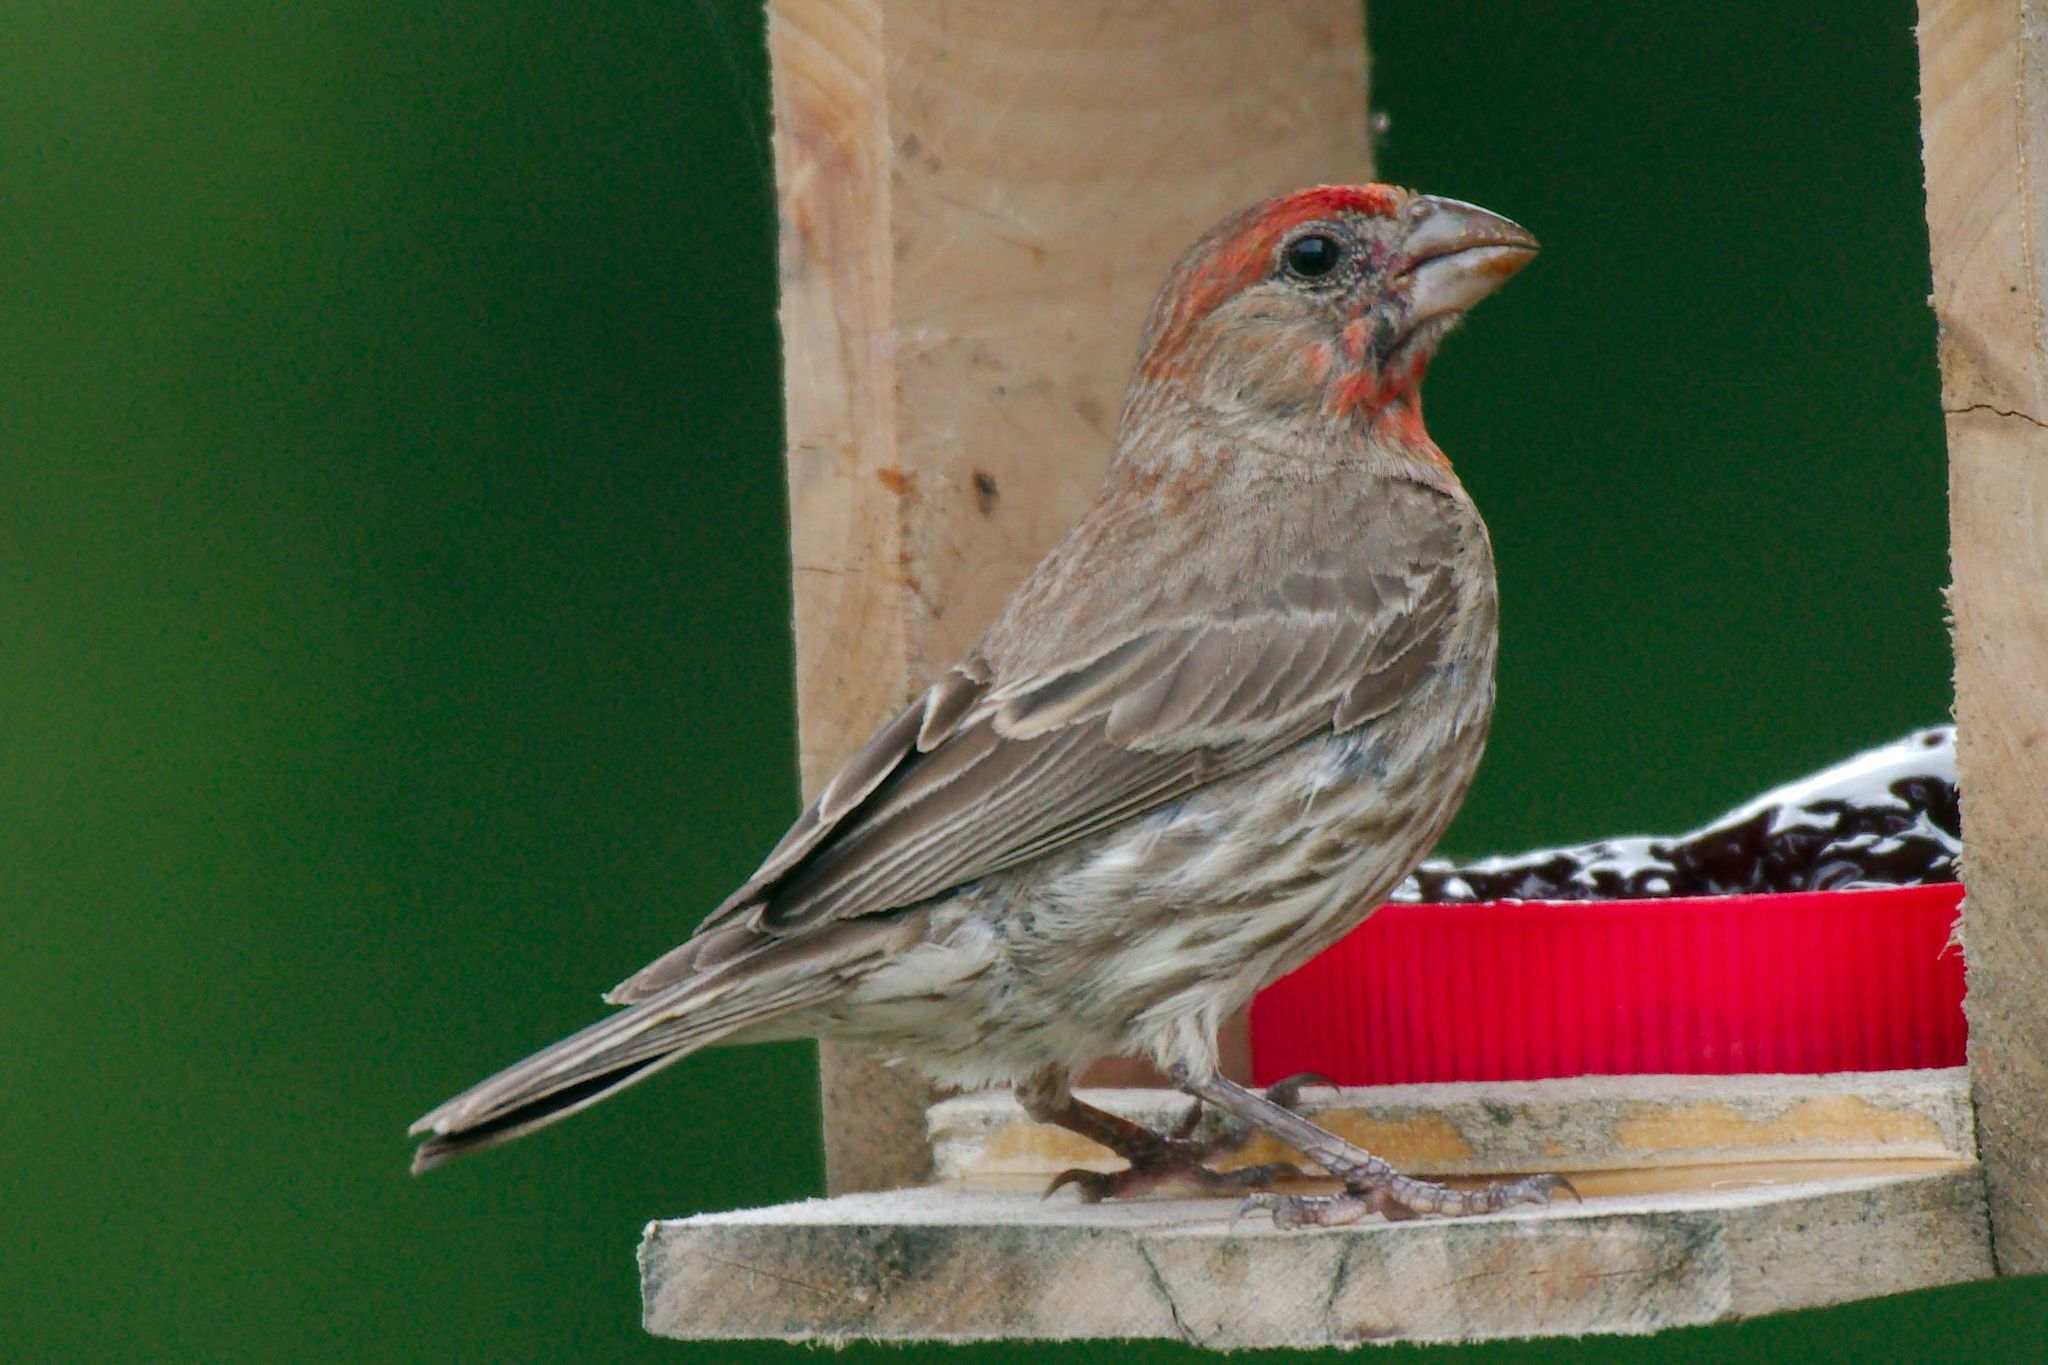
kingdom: Animalia
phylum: Chordata
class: Aves
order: Passeriformes
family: Fringillidae
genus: Haemorhous
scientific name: Haemorhous mexicanus
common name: House finch
